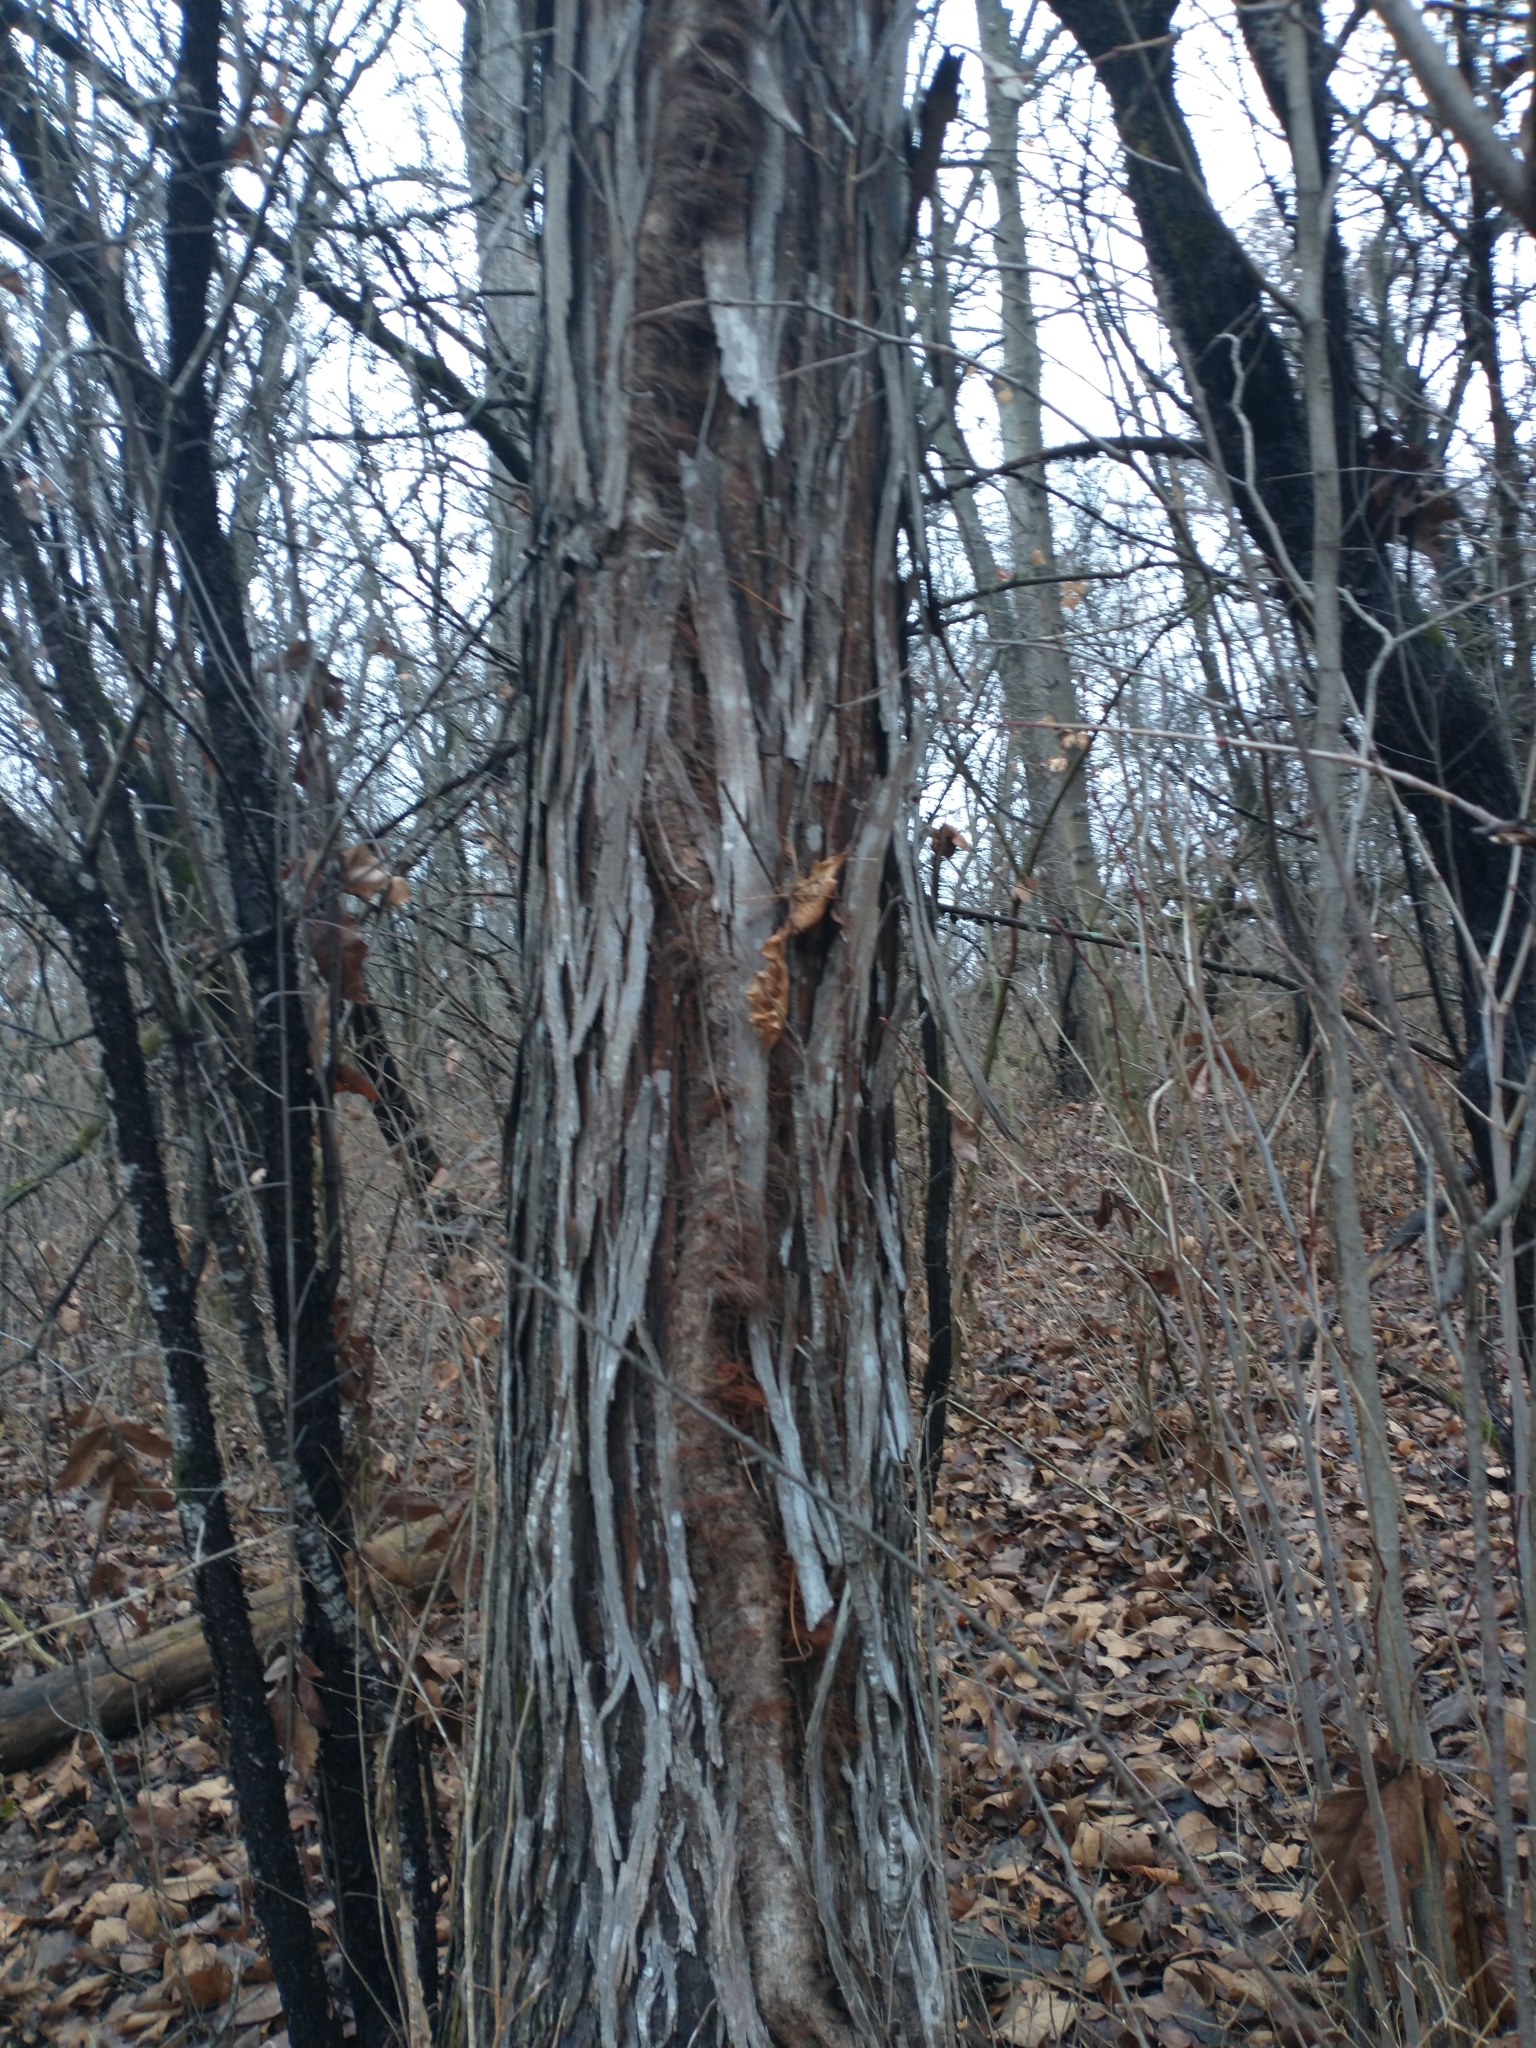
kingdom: Plantae
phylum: Tracheophyta
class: Magnoliopsida
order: Fagales
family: Juglandaceae
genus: Carya
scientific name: Carya ovata
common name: Shagbark hickory
